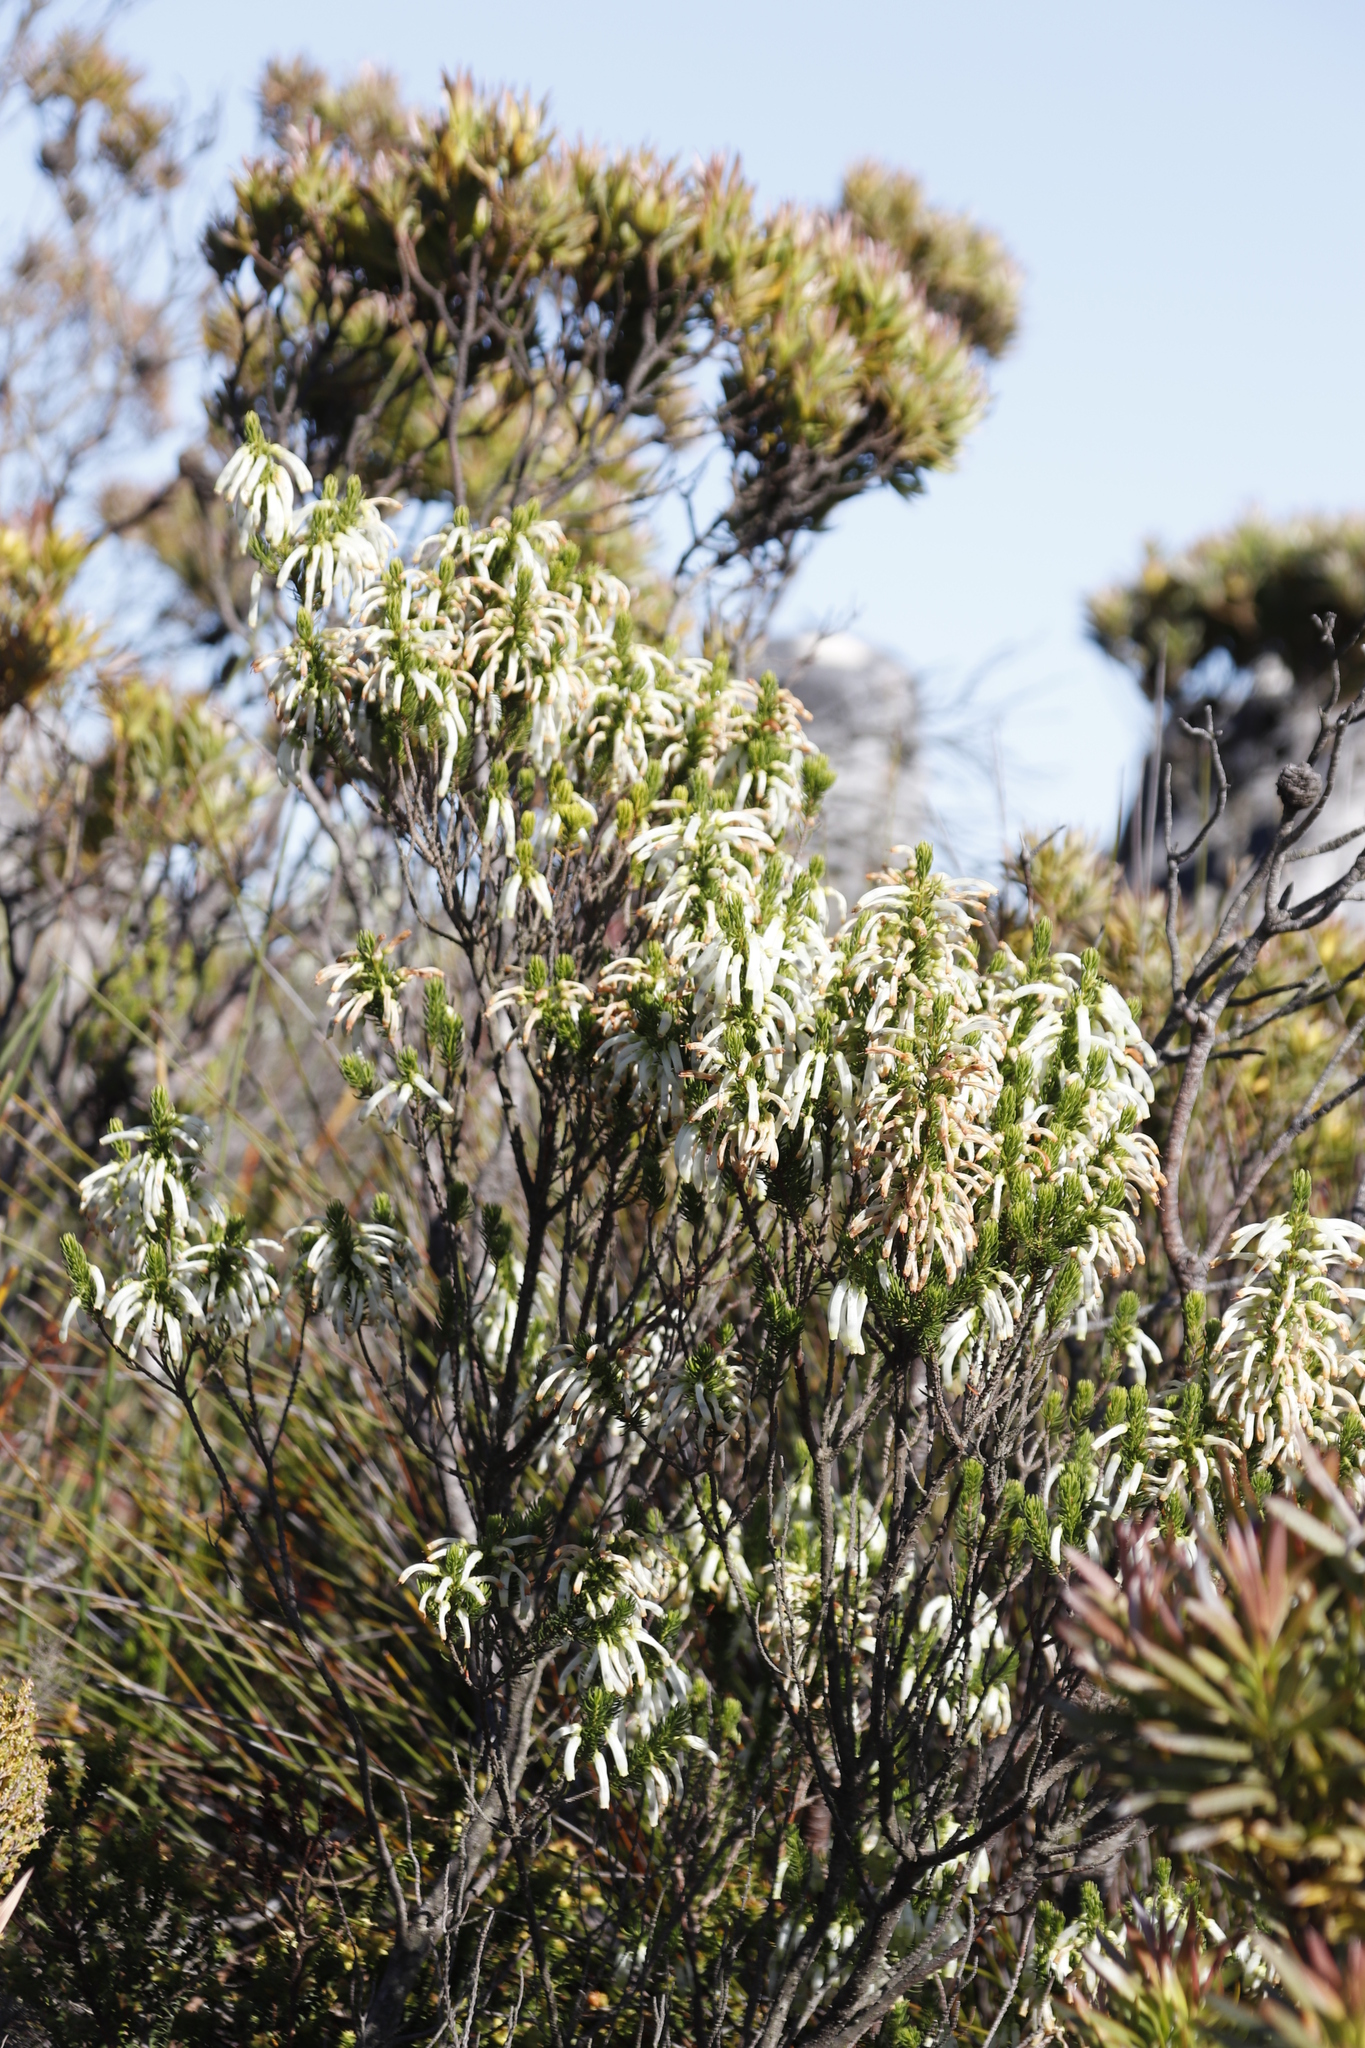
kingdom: Plantae
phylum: Tracheophyta
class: Magnoliopsida
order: Ericales
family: Ericaceae
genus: Erica
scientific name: Erica mammosa
